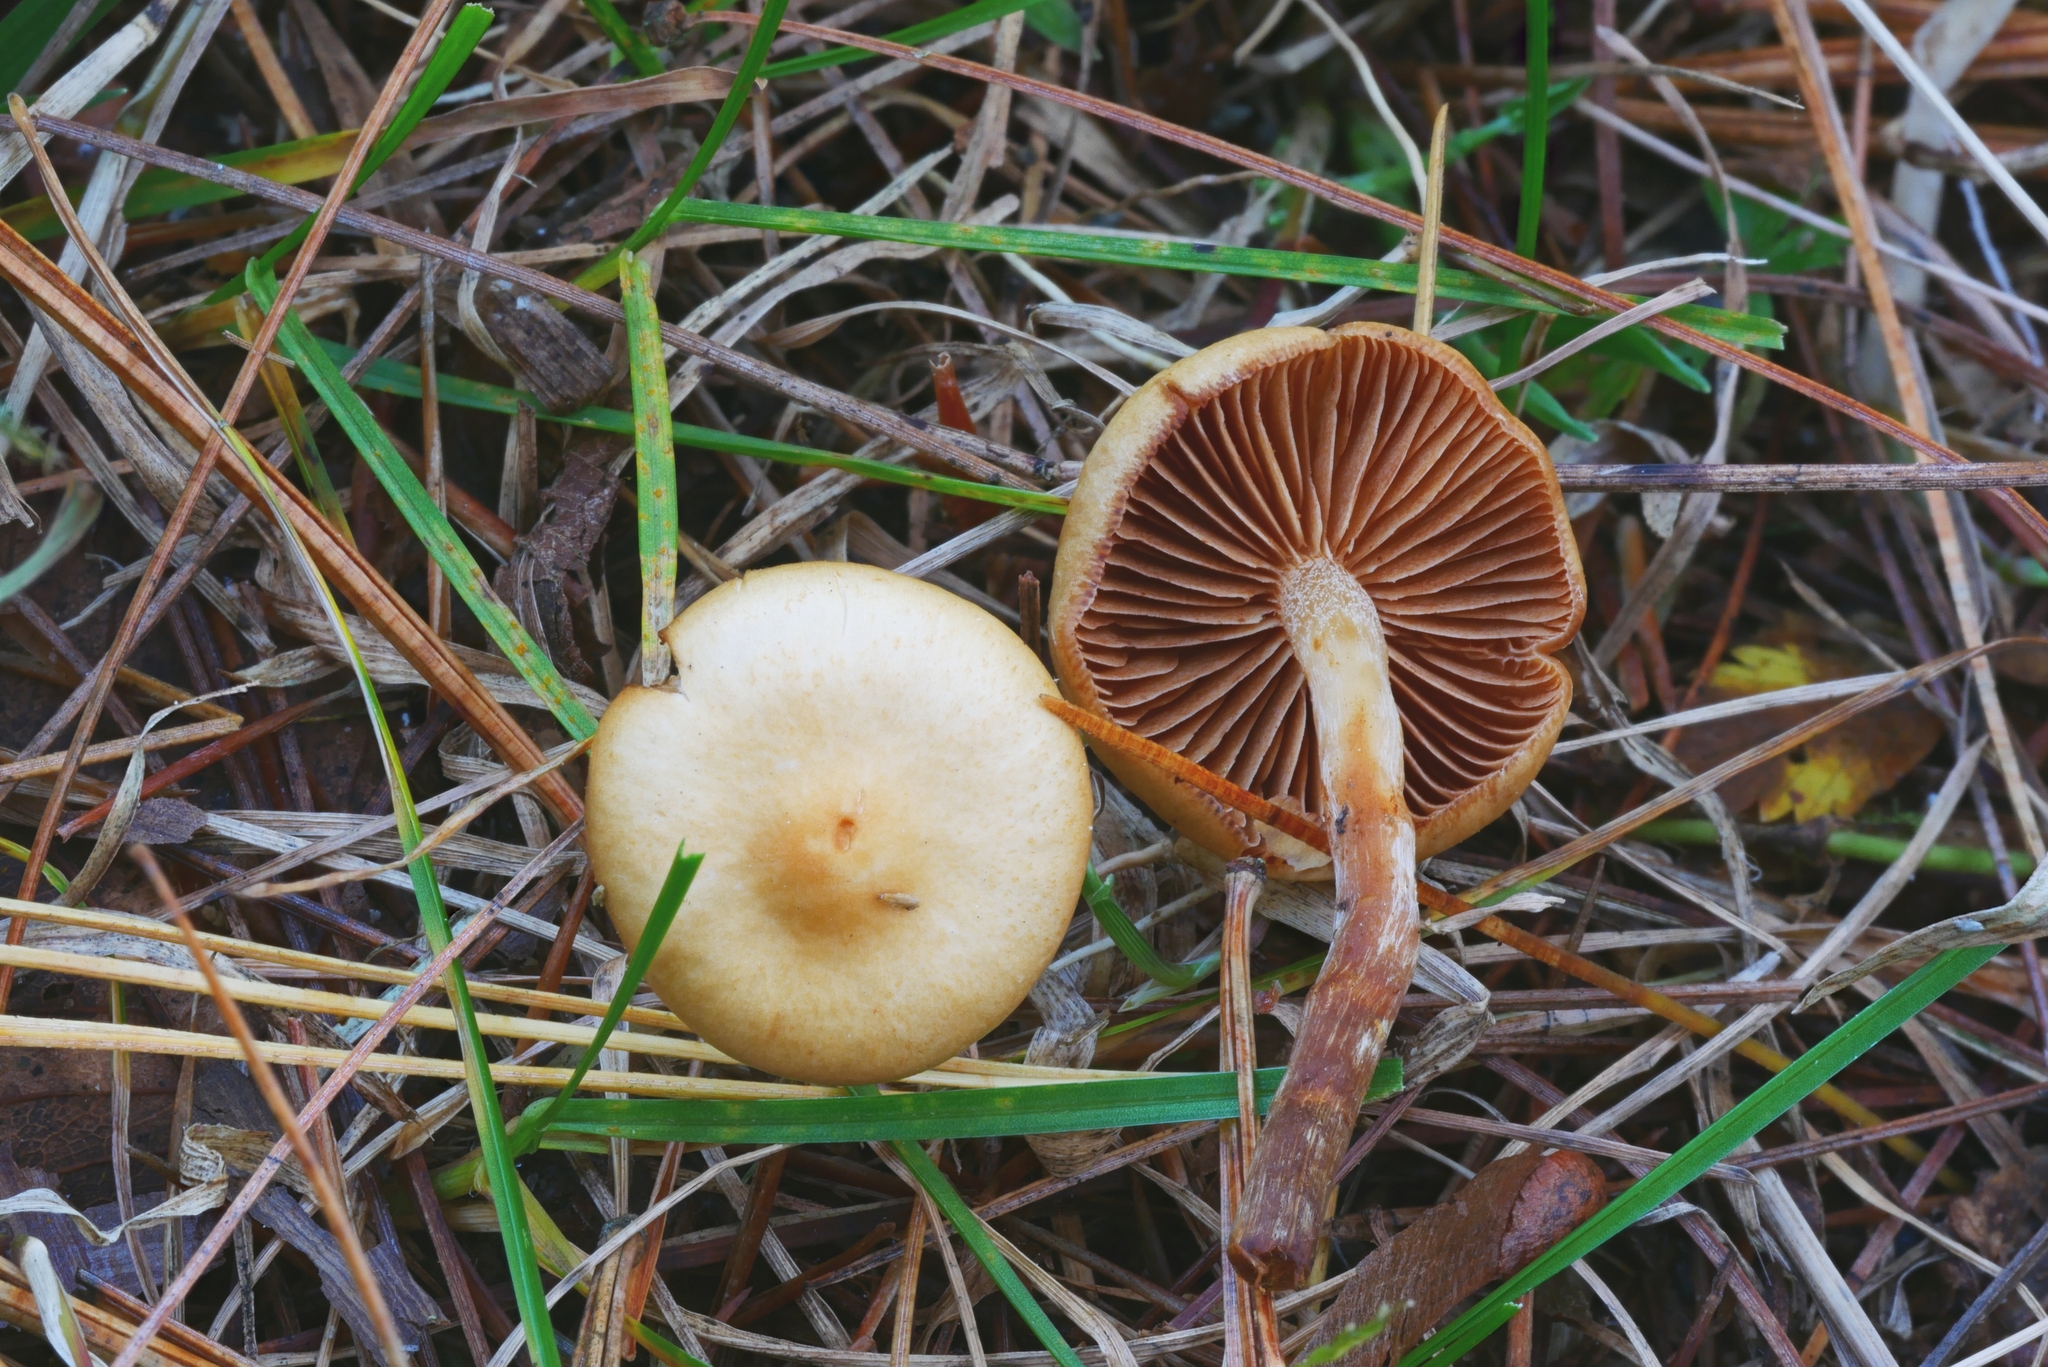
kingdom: Fungi
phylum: Basidiomycota
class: Agaricomycetes
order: Agaricales
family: Hymenogastraceae
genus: Galerina
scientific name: Galerina sideroides
